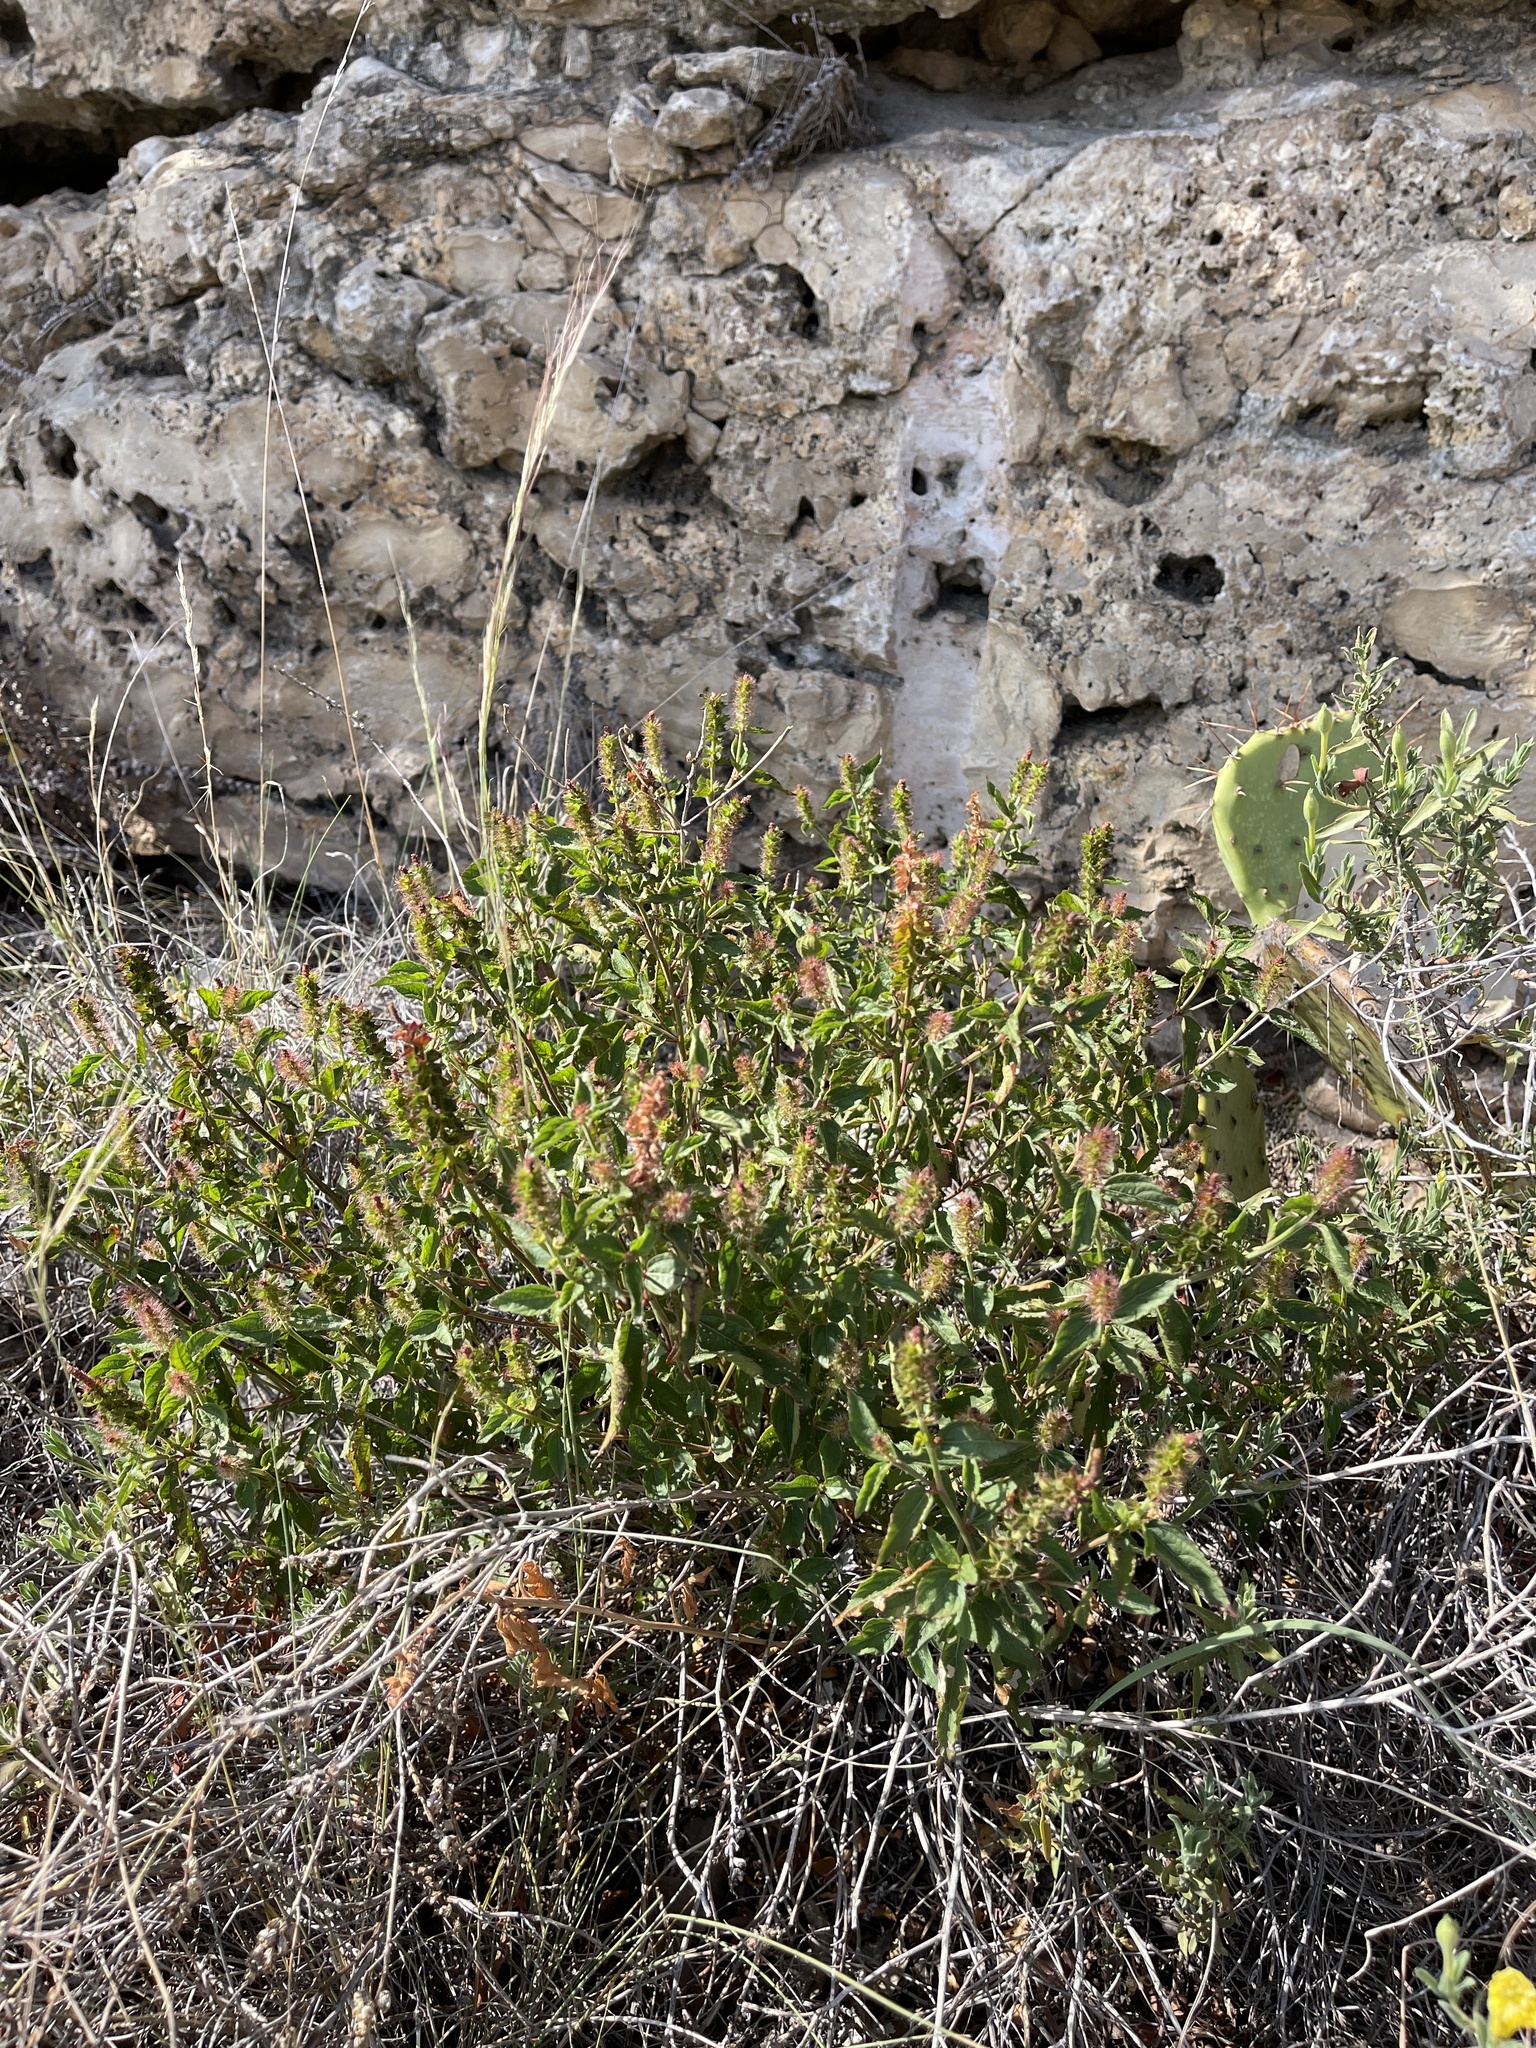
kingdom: Plantae
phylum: Tracheophyta
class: Magnoliopsida
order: Malpighiales
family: Euphorbiaceae
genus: Acalypha
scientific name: Acalypha phleoides
